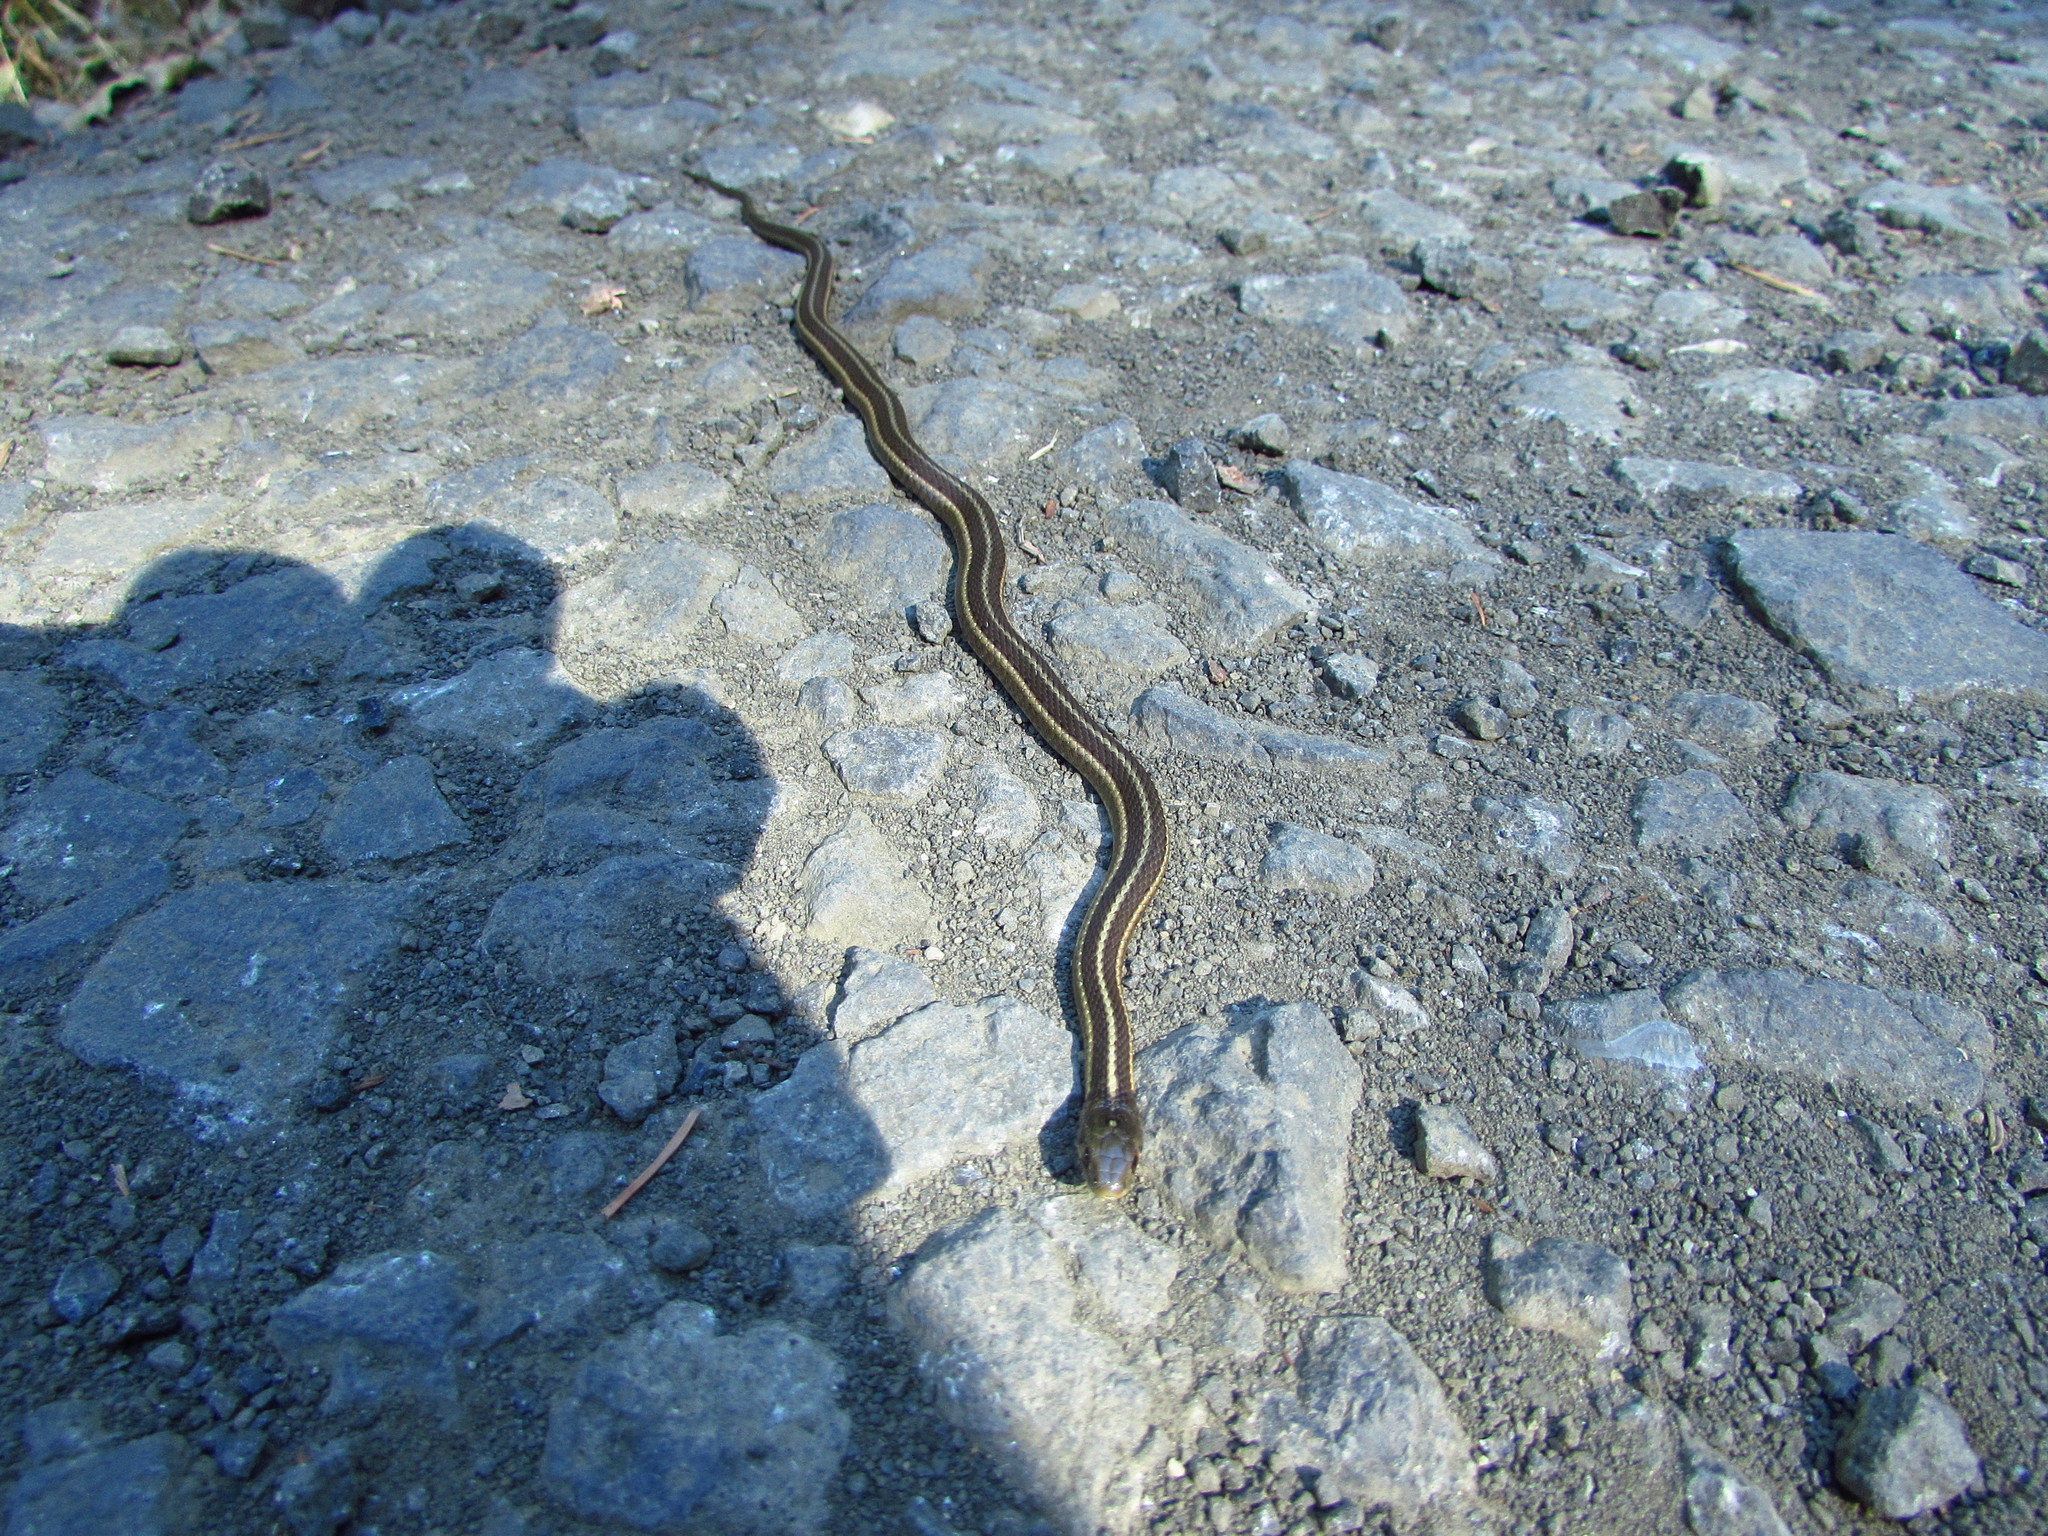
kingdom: Animalia
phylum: Chordata
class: Squamata
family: Colubridae
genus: Thamnophis
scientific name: Thamnophis ordinoides
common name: Northwestern garter snake
